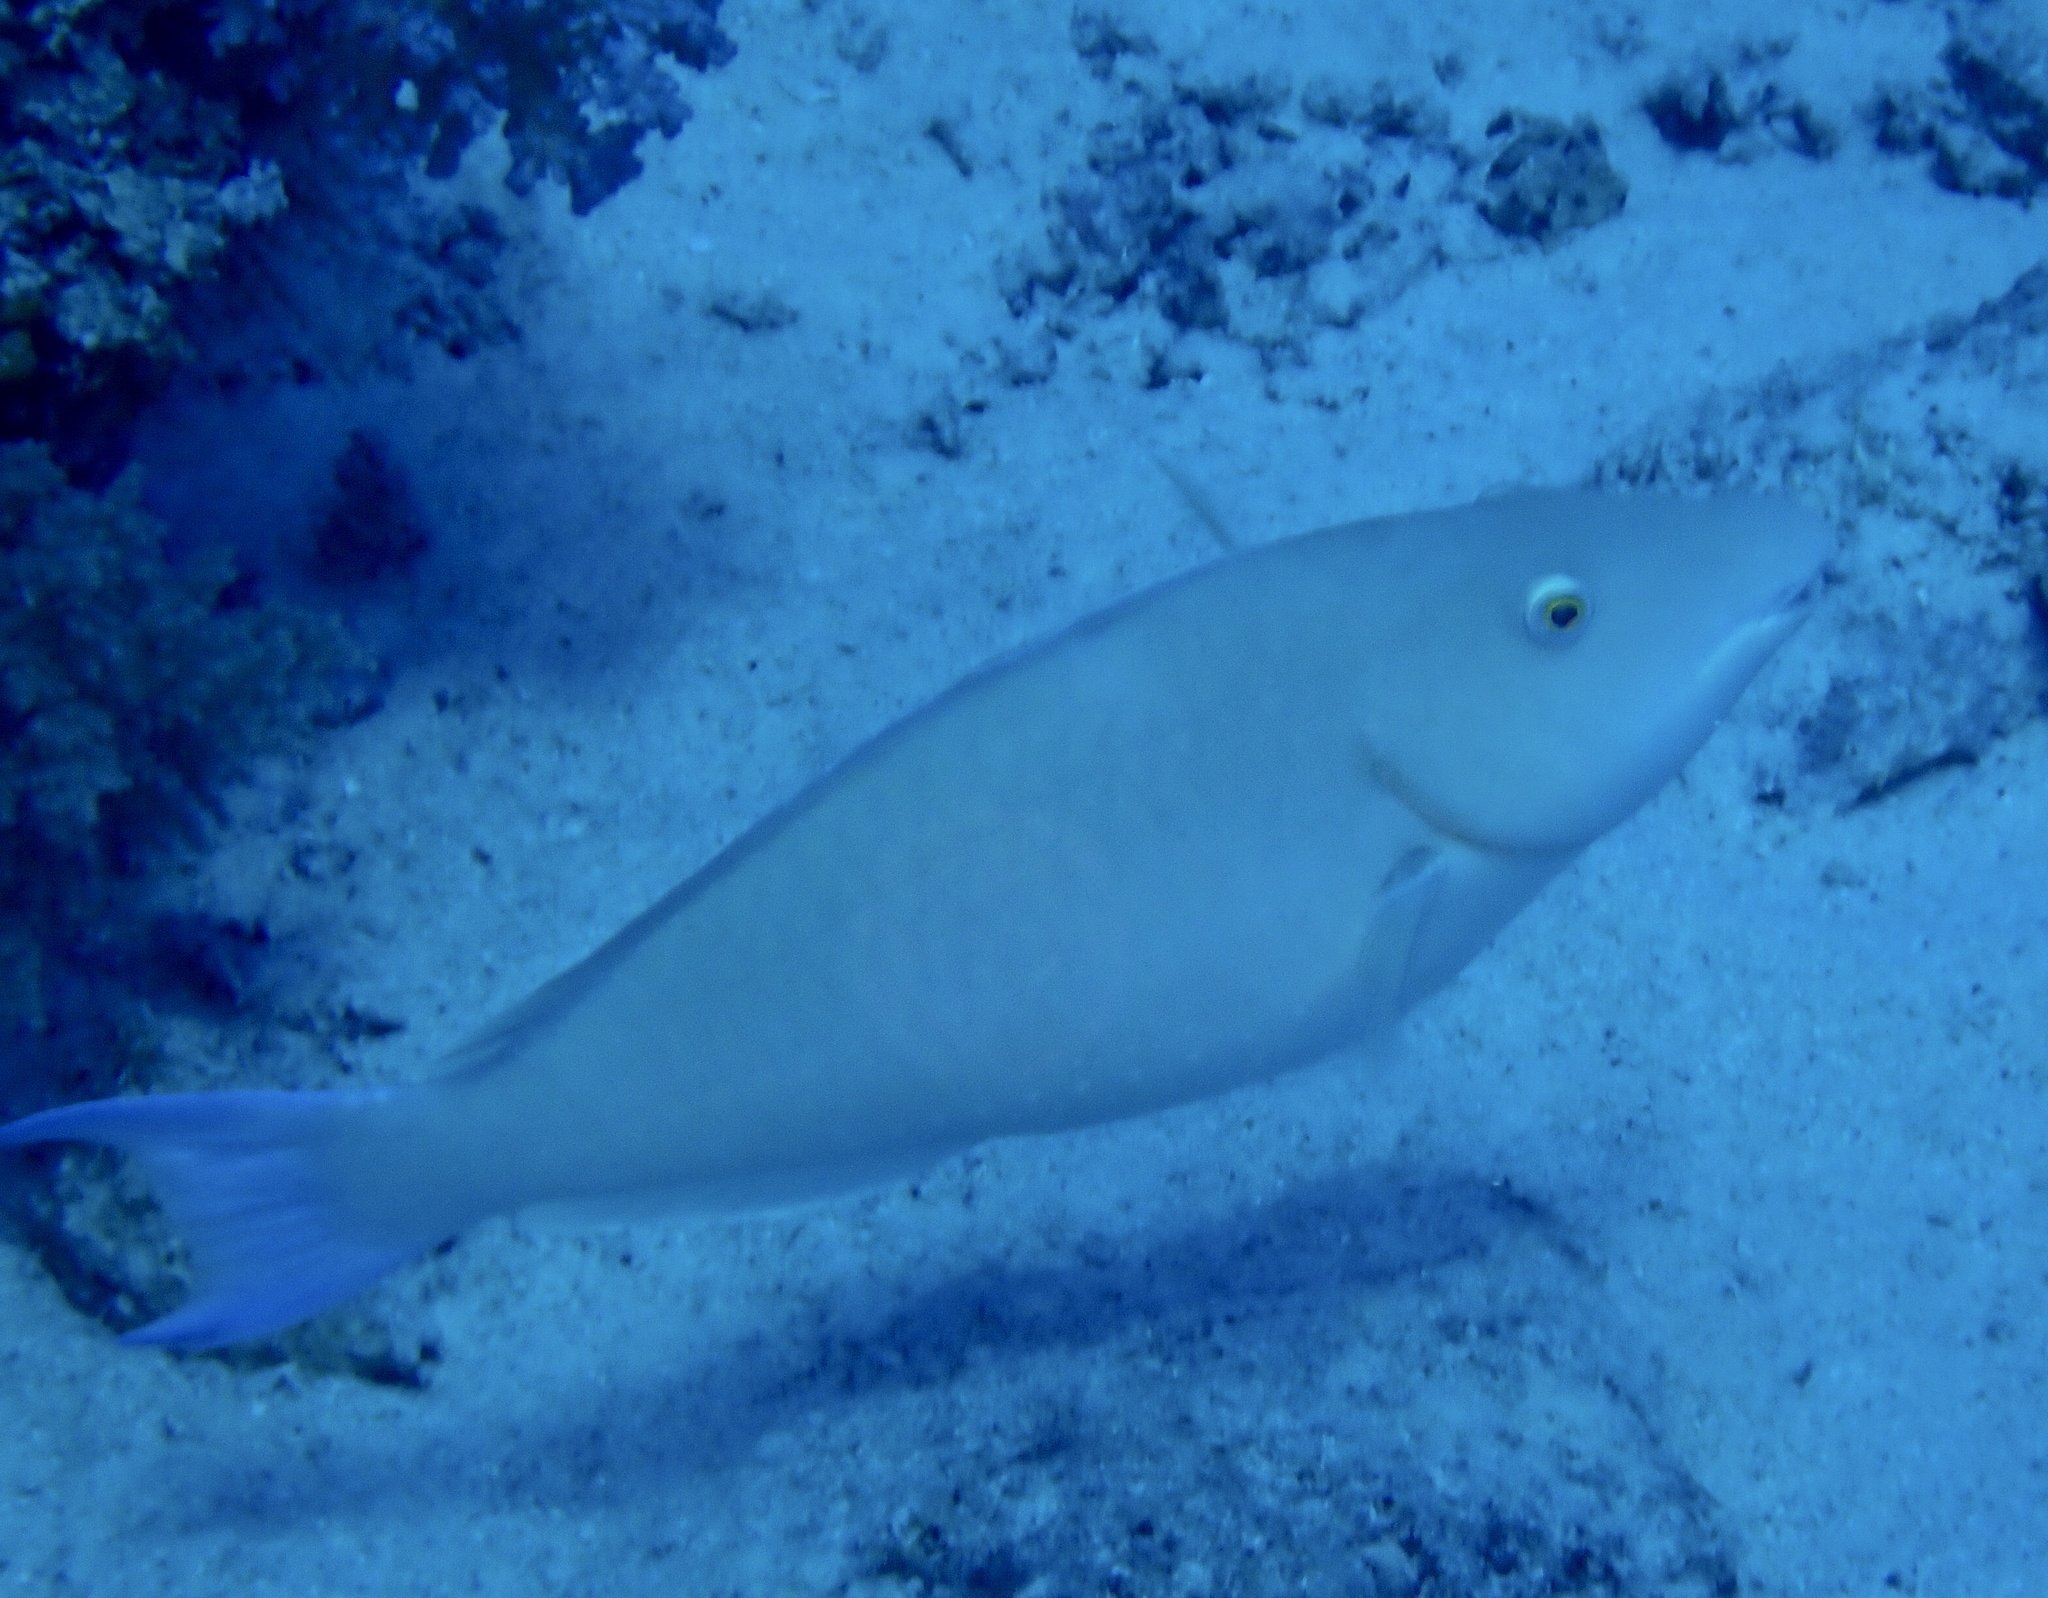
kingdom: Animalia
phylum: Chordata
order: Perciformes
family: Scaridae
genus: Hipposcarus
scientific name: Hipposcarus harid
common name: Candelamoa parrotfish
